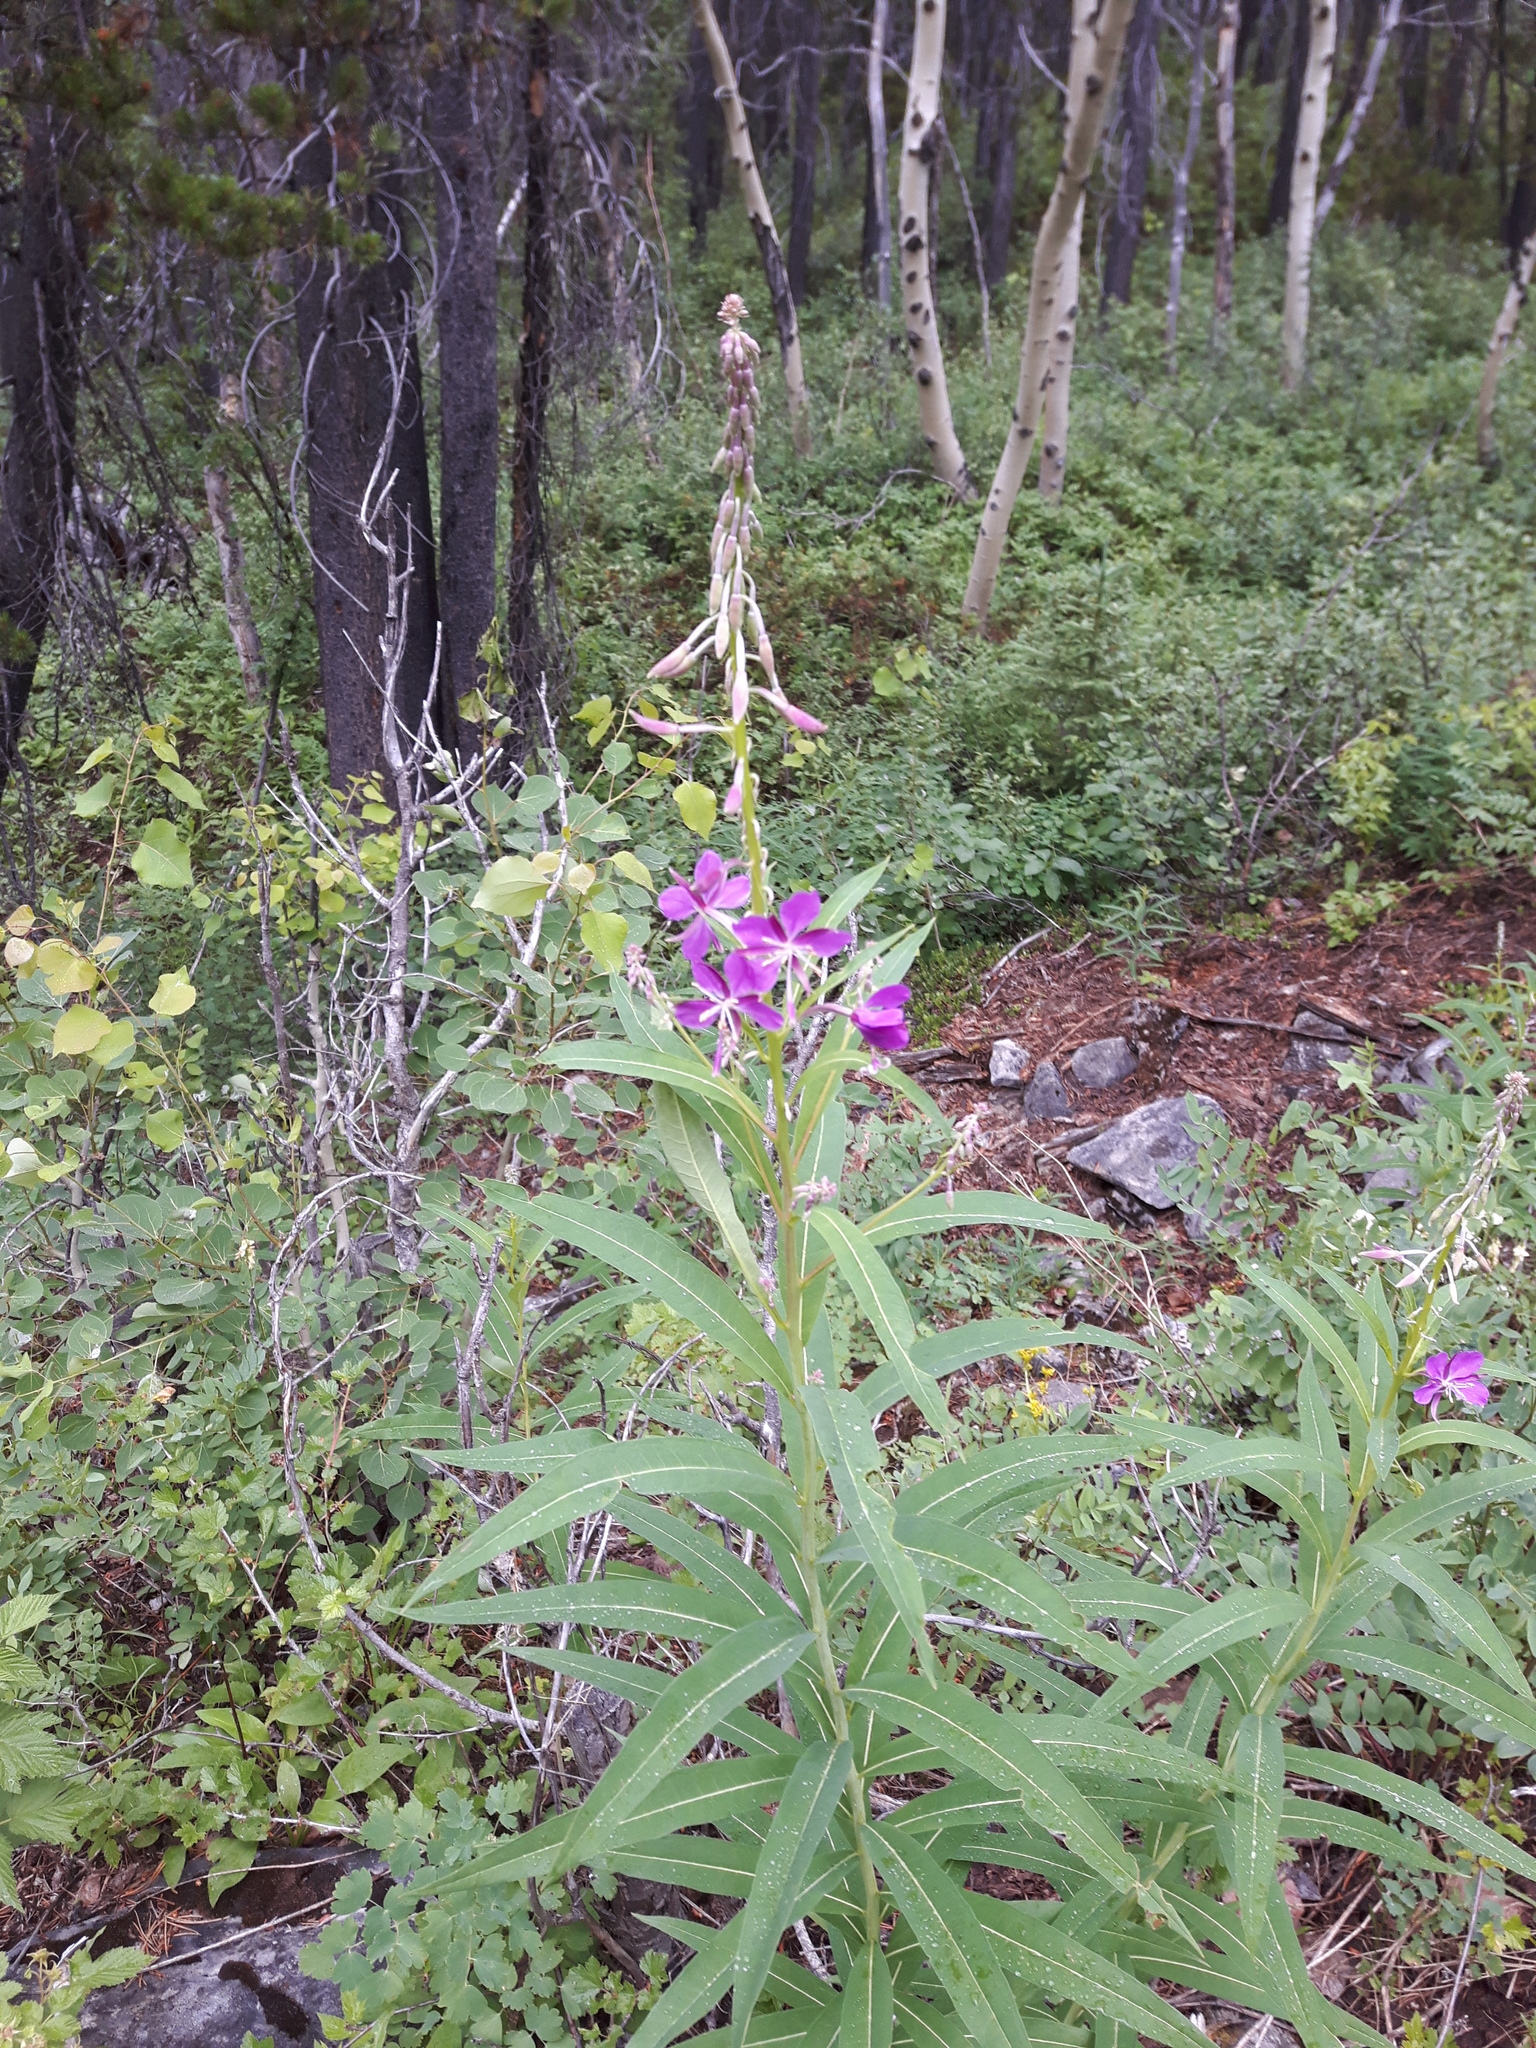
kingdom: Plantae
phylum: Tracheophyta
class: Magnoliopsida
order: Myrtales
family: Onagraceae
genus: Chamaenerion
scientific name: Chamaenerion angustifolium
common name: Fireweed
